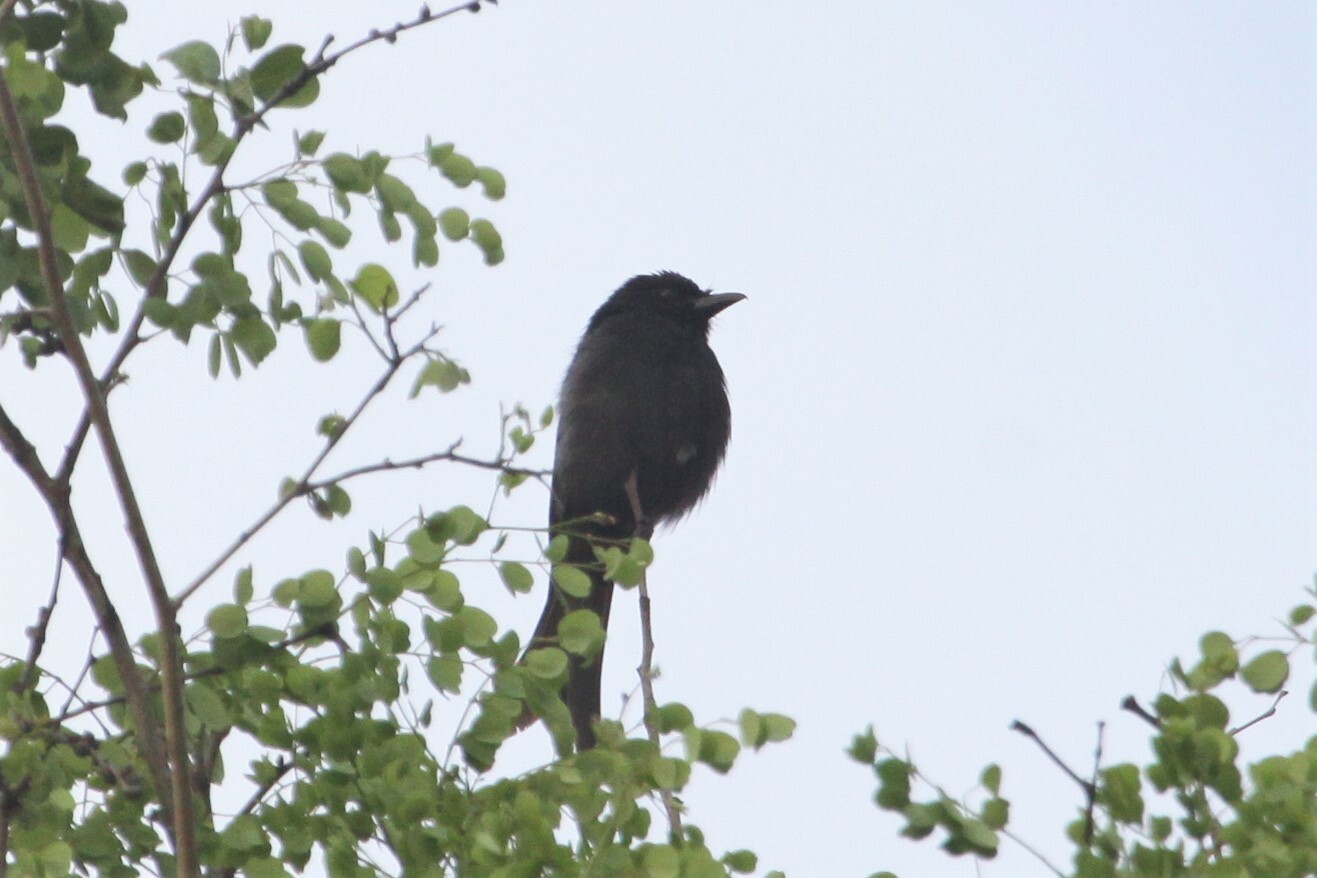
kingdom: Animalia
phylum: Chordata
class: Aves
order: Passeriformes
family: Dicruridae
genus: Dicrurus
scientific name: Dicrurus adsimilis
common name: Fork-tailed drongo
